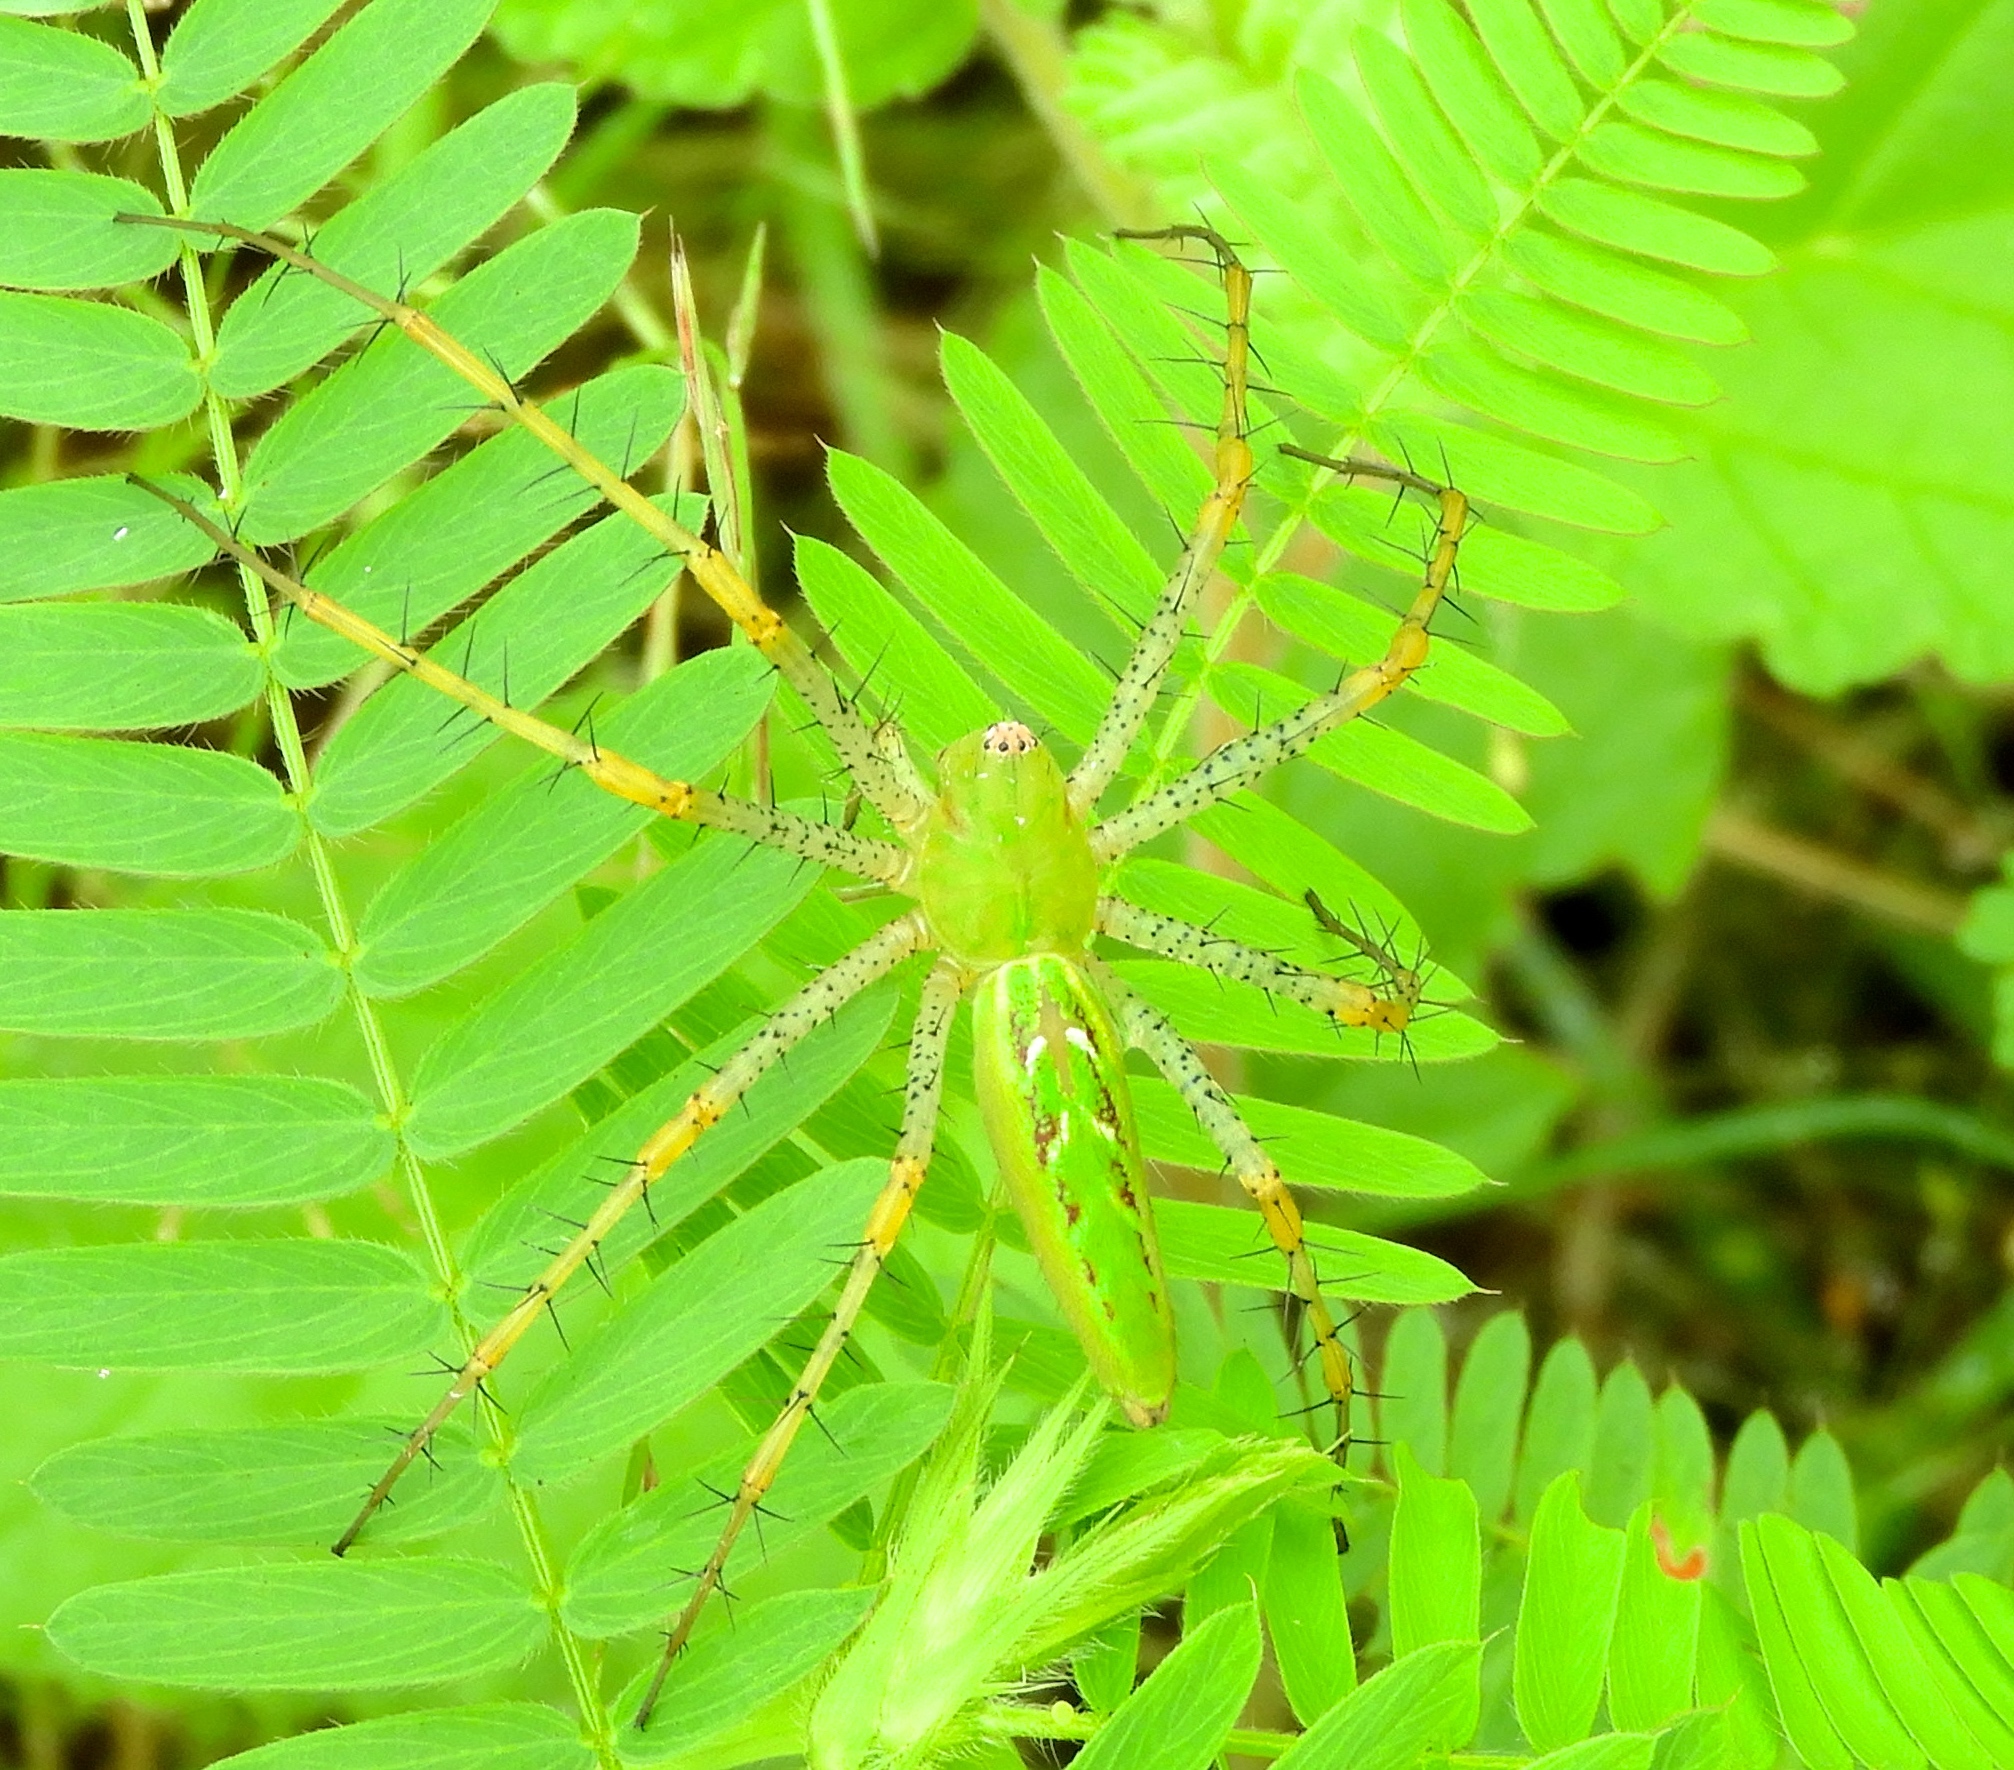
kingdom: Animalia
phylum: Arthropoda
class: Arachnida
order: Araneae
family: Oxyopidae
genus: Peucetia
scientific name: Peucetia
